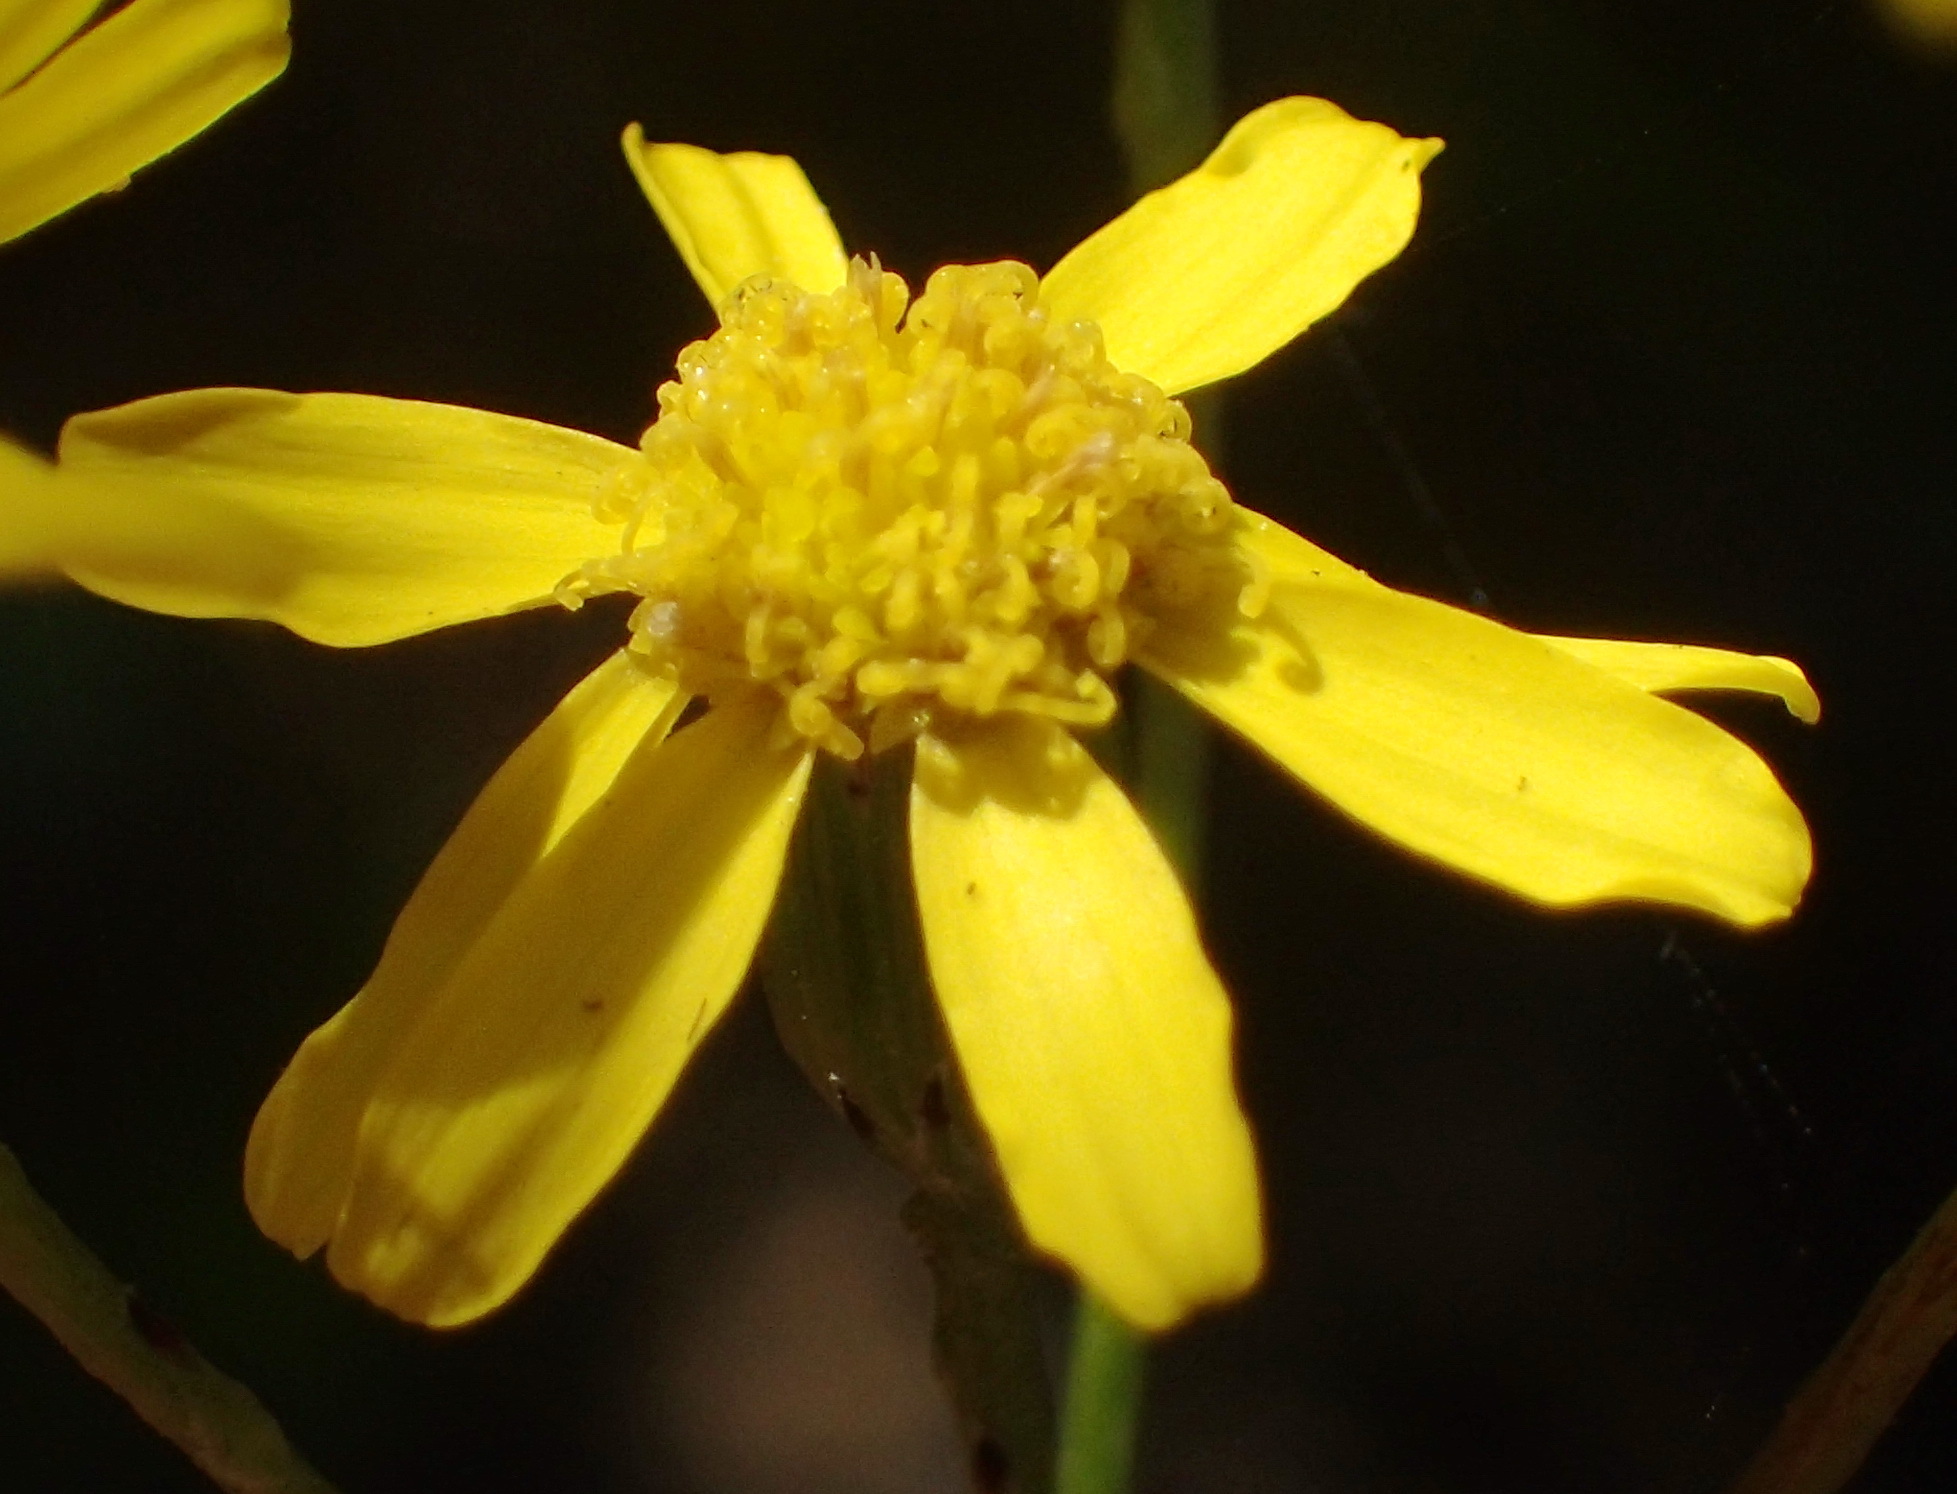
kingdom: Plantae
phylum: Tracheophyta
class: Magnoliopsida
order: Asterales
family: Asteraceae
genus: Senecio
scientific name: Senecio burchellii
